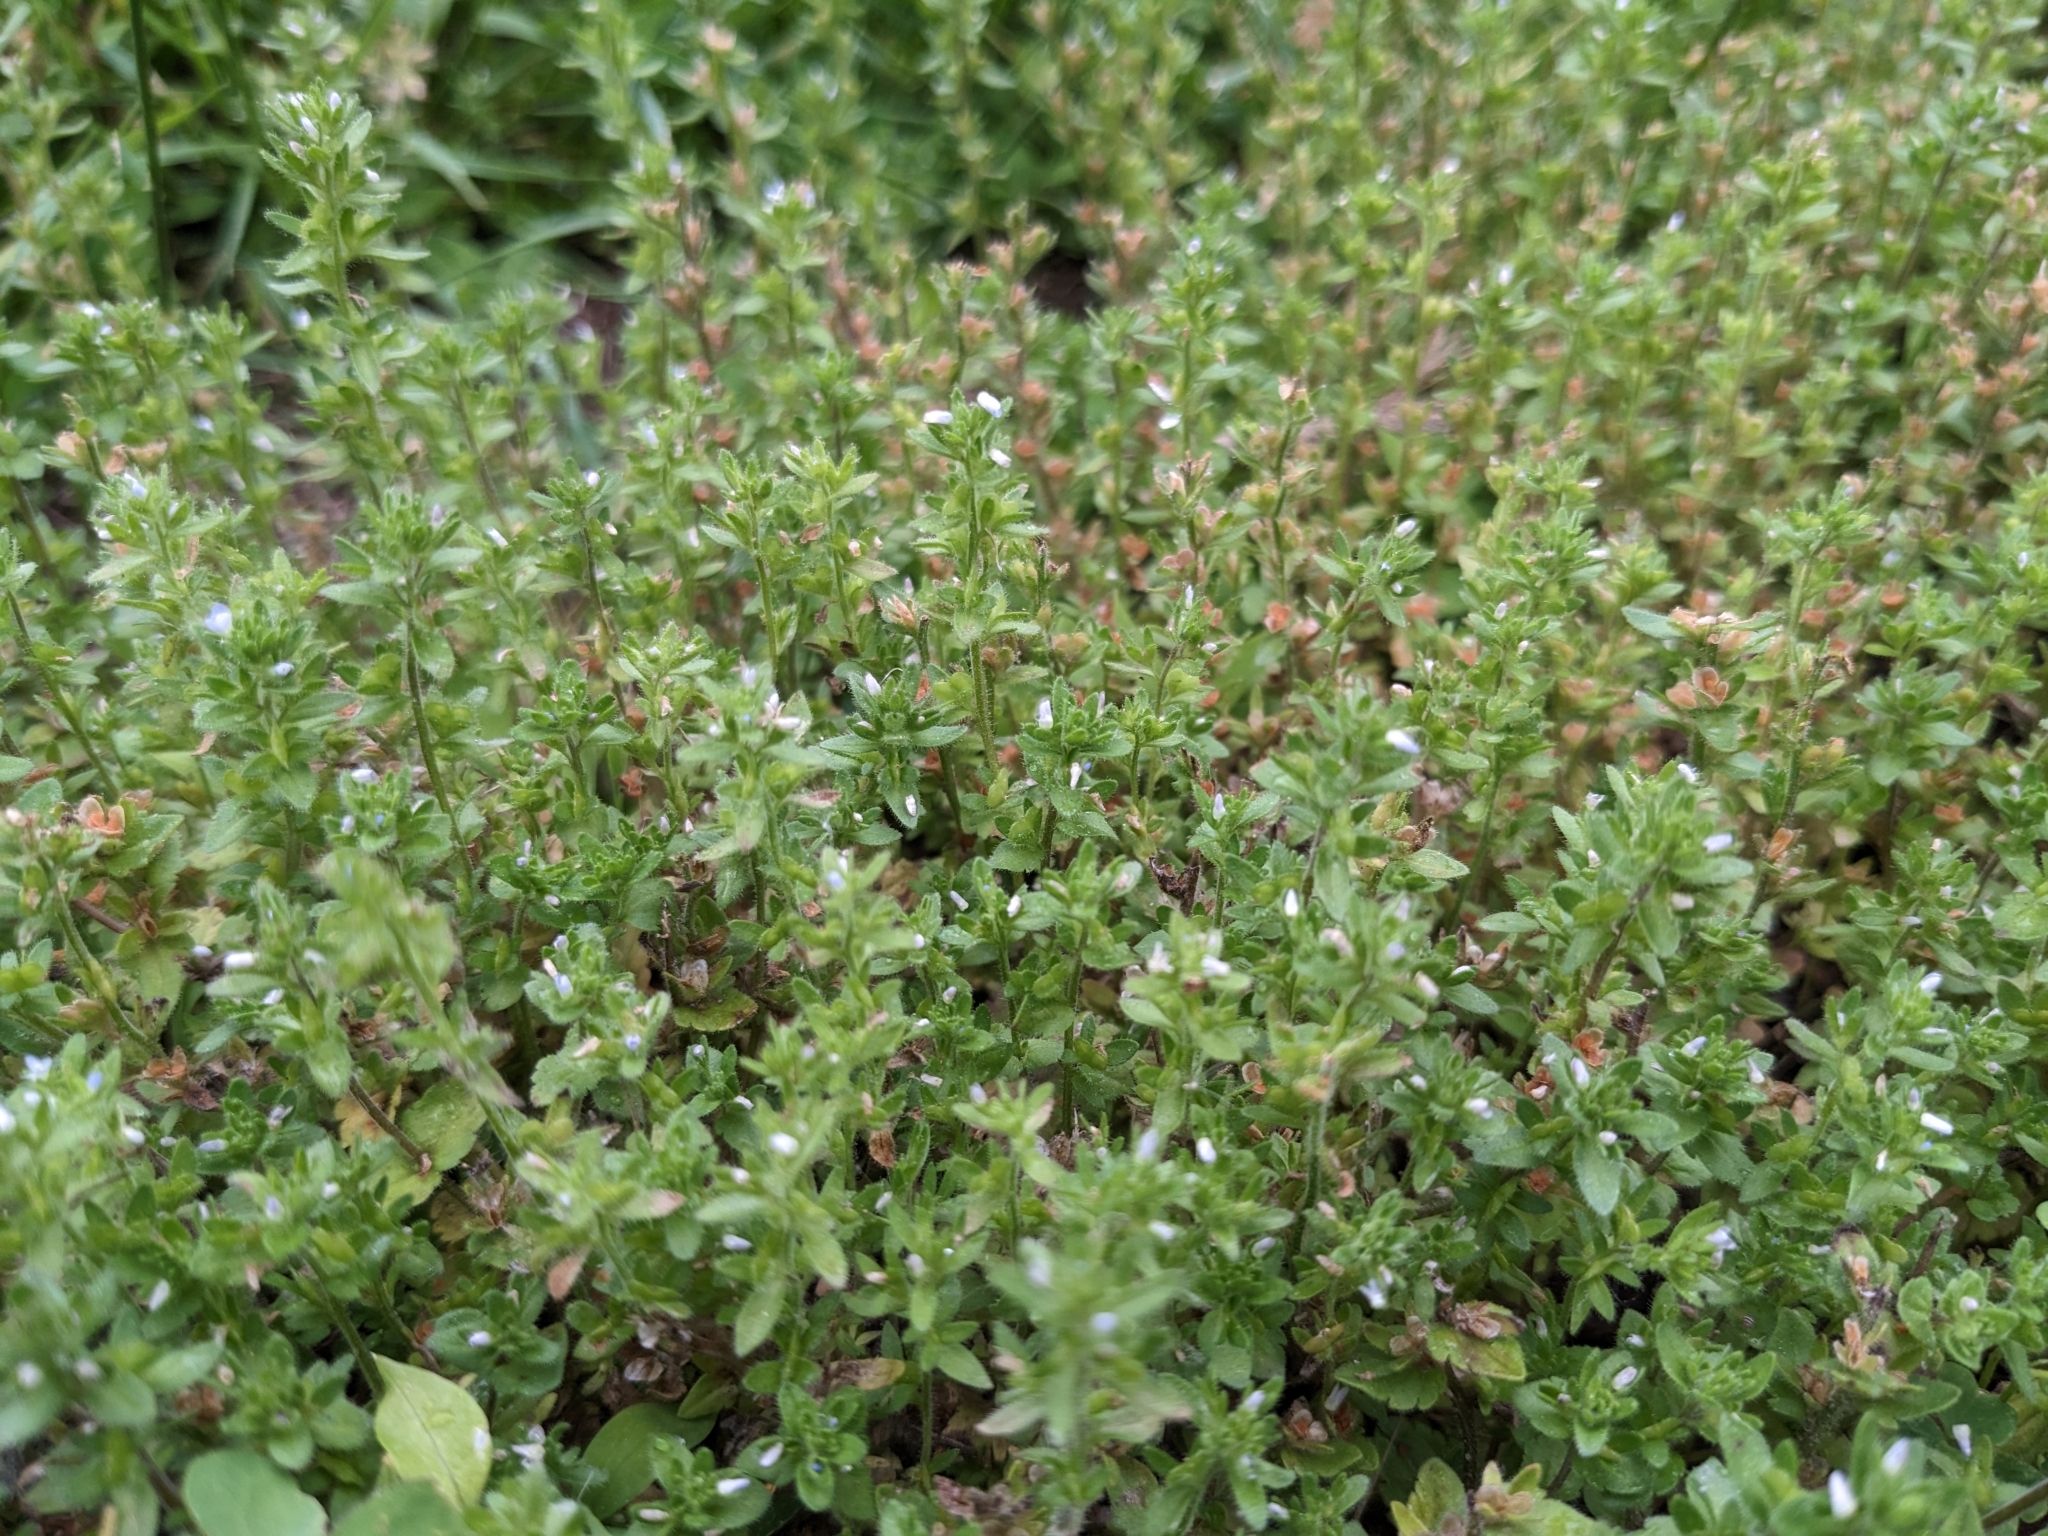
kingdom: Plantae
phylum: Tracheophyta
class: Magnoliopsida
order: Lamiales
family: Plantaginaceae
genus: Veronica
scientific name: Veronica arvensis
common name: Corn speedwell
